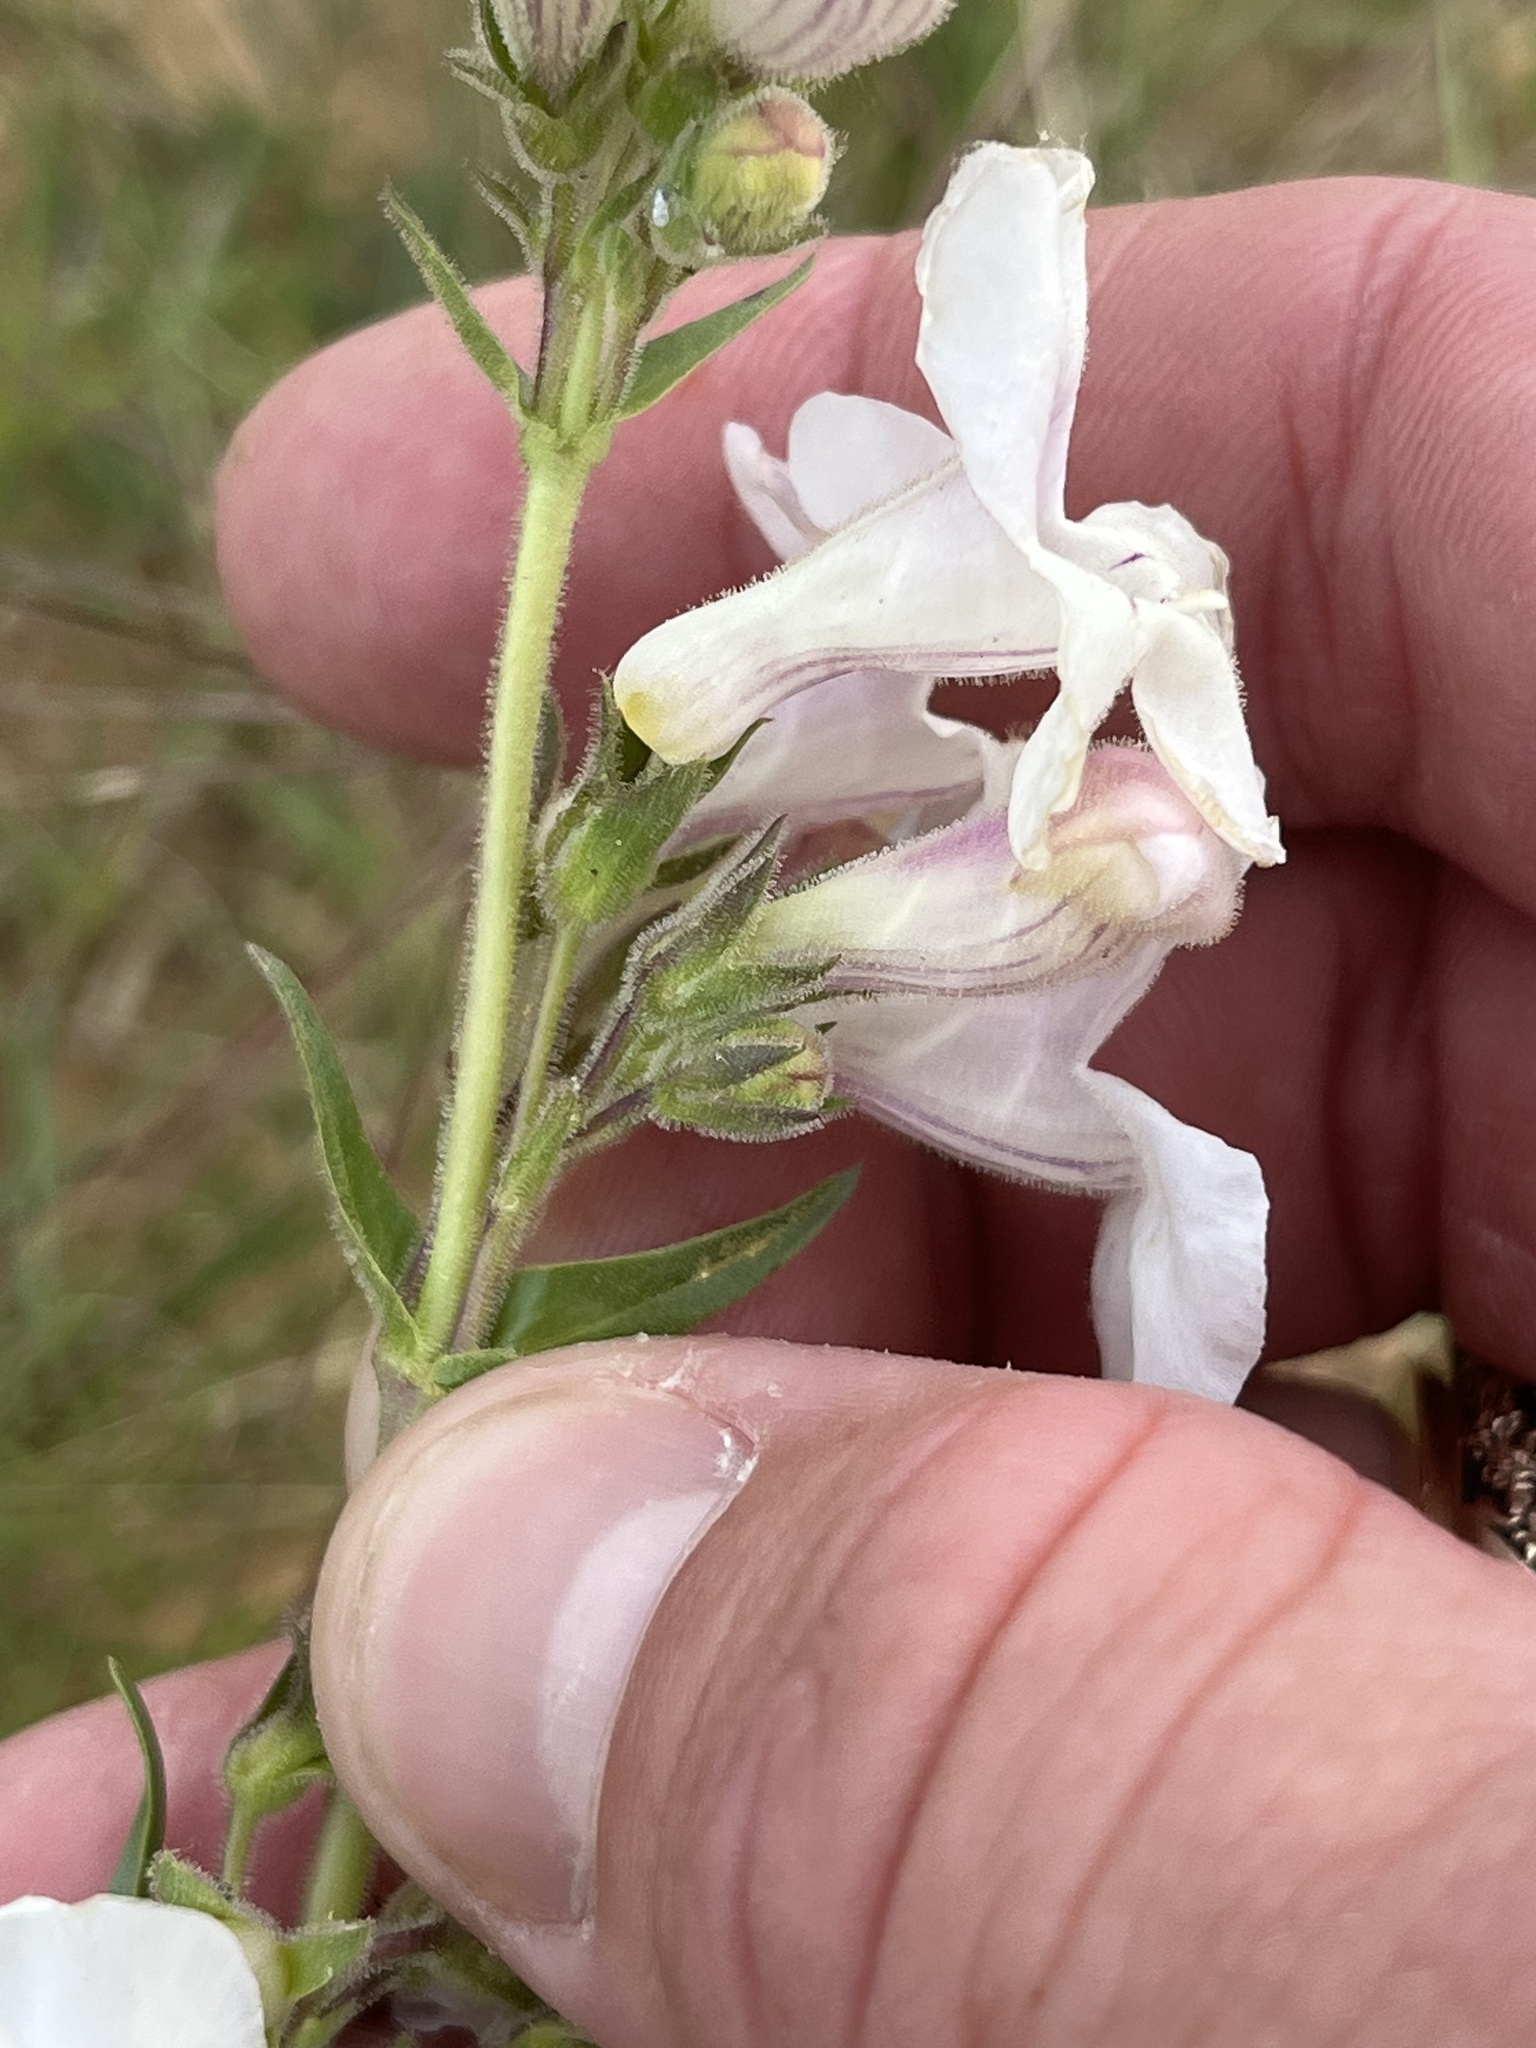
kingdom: Plantae
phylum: Tracheophyta
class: Magnoliopsida
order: Lamiales
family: Plantaginaceae
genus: Penstemon
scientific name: Penstemon guadalupensis
